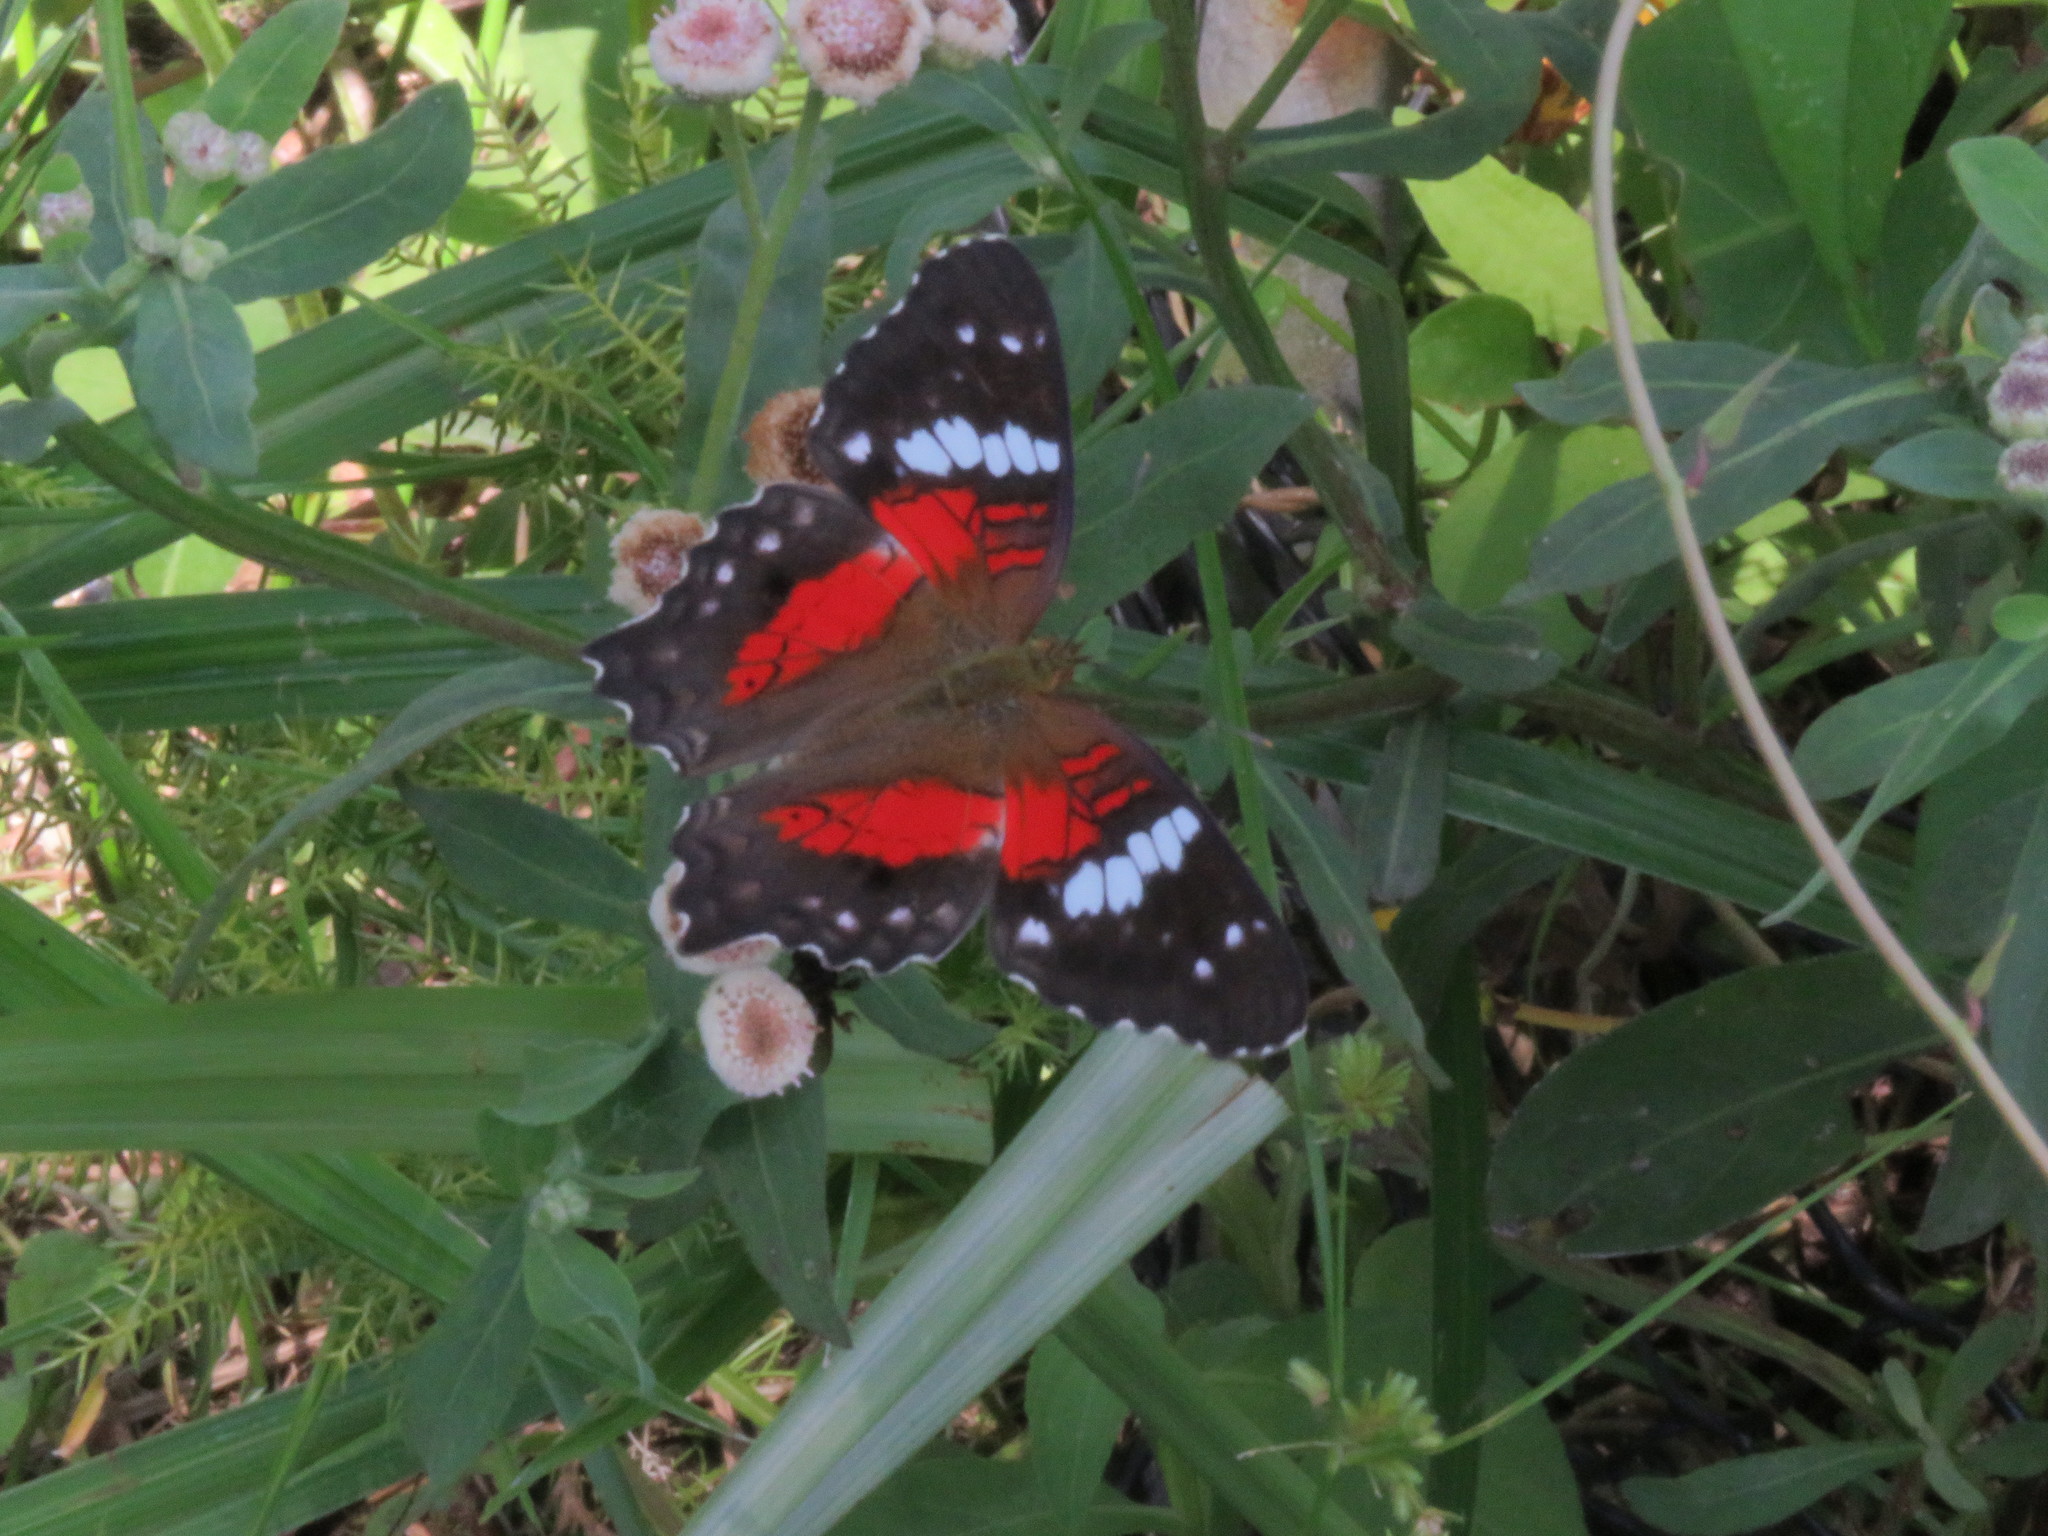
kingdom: Animalia
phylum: Arthropoda
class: Insecta
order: Lepidoptera
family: Nymphalidae
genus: Anartia
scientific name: Anartia amathea
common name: Red peacock
